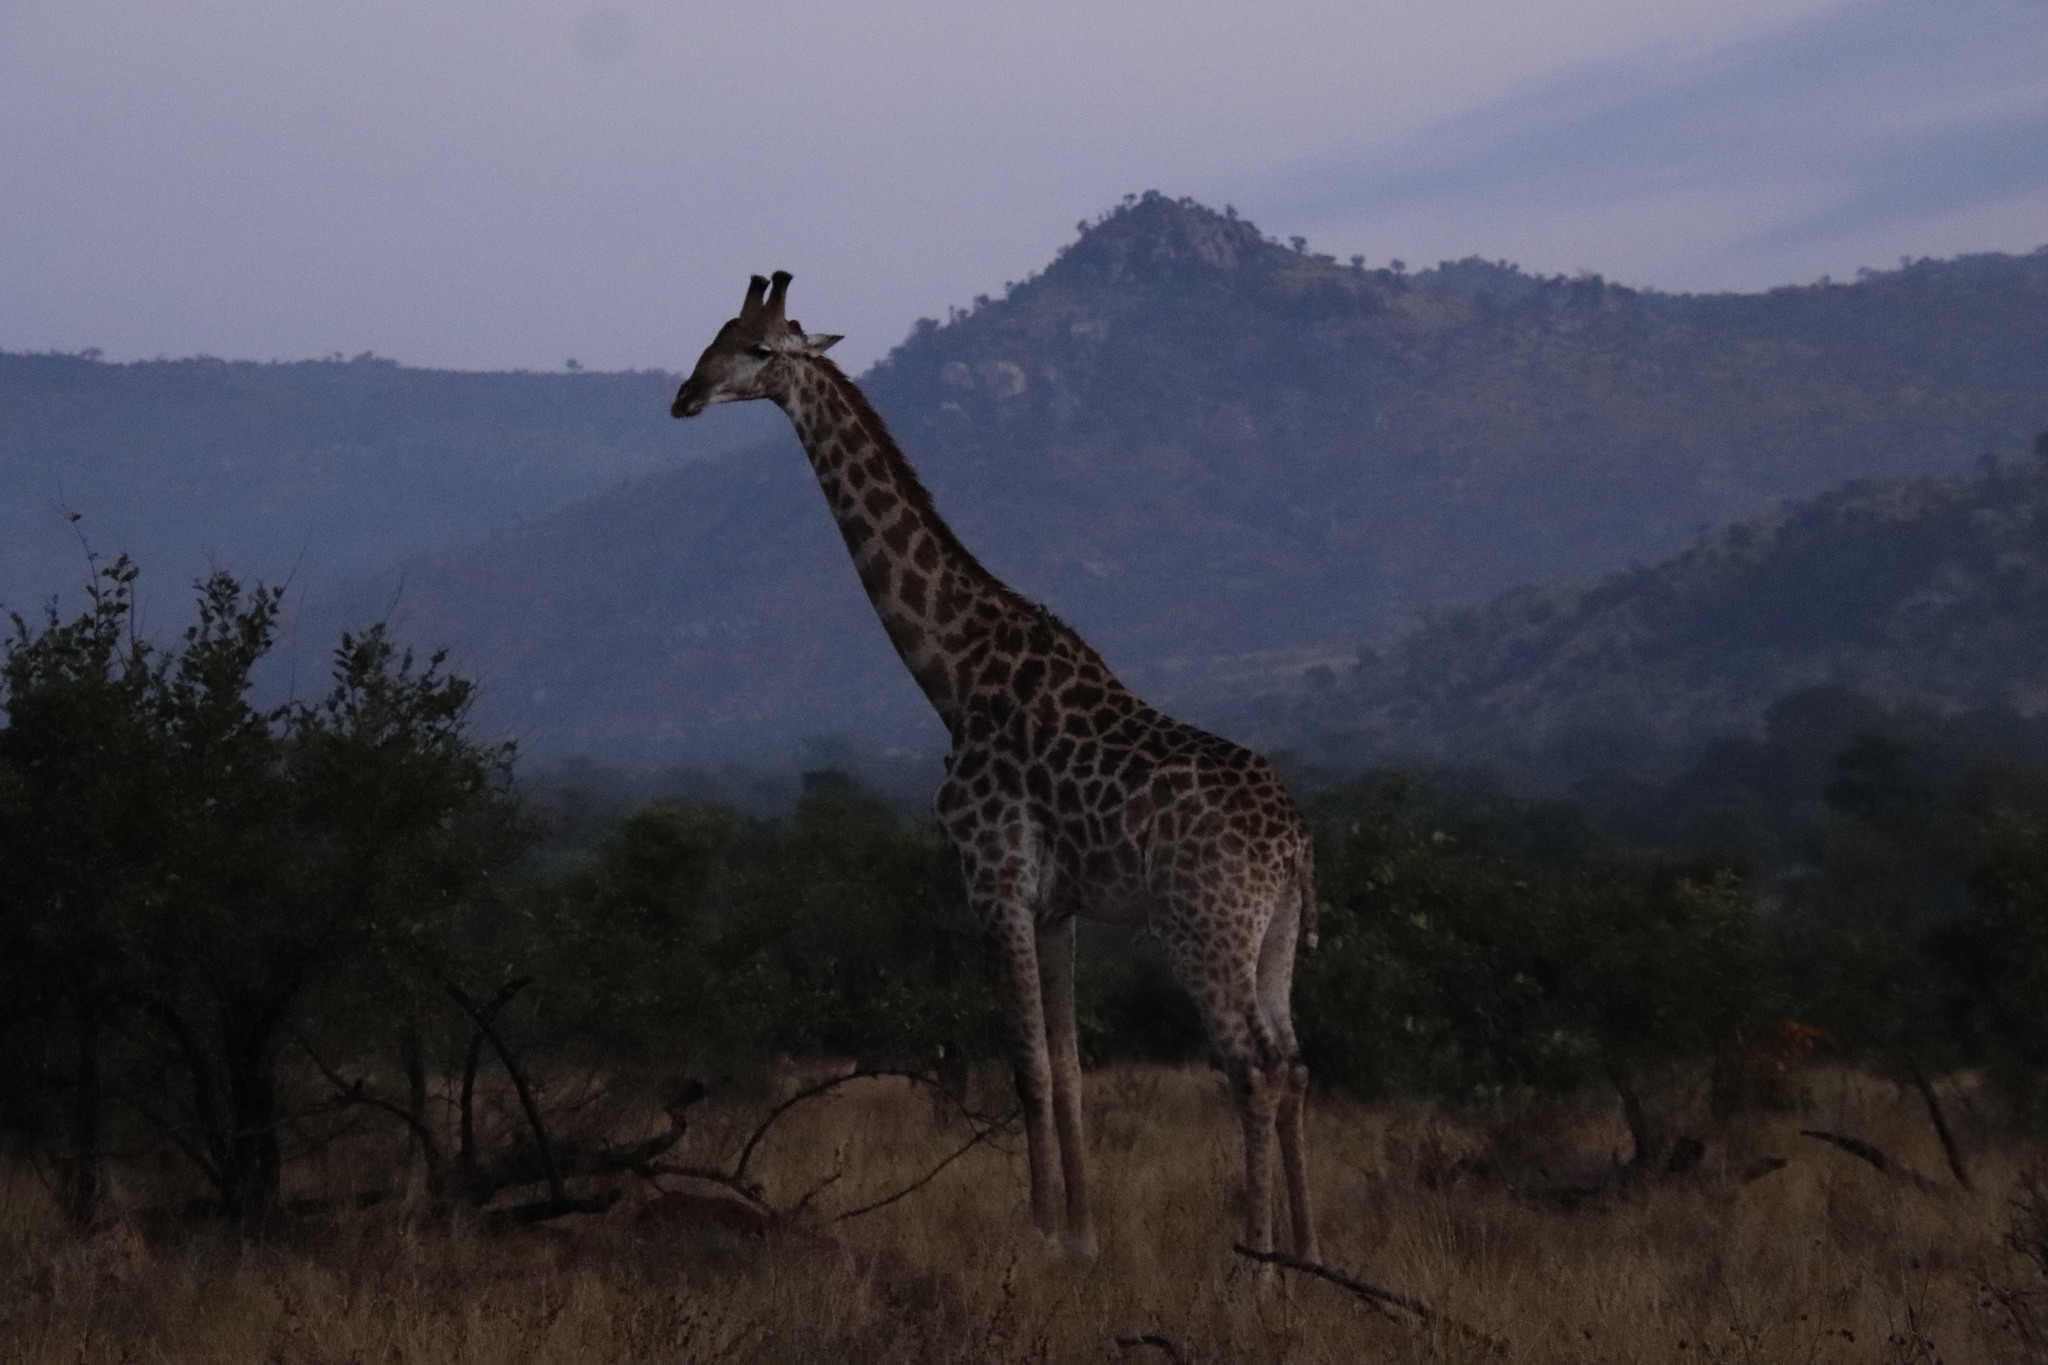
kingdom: Animalia
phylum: Chordata
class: Mammalia
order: Artiodactyla
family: Giraffidae
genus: Giraffa
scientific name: Giraffa giraffa
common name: Southern giraffe
